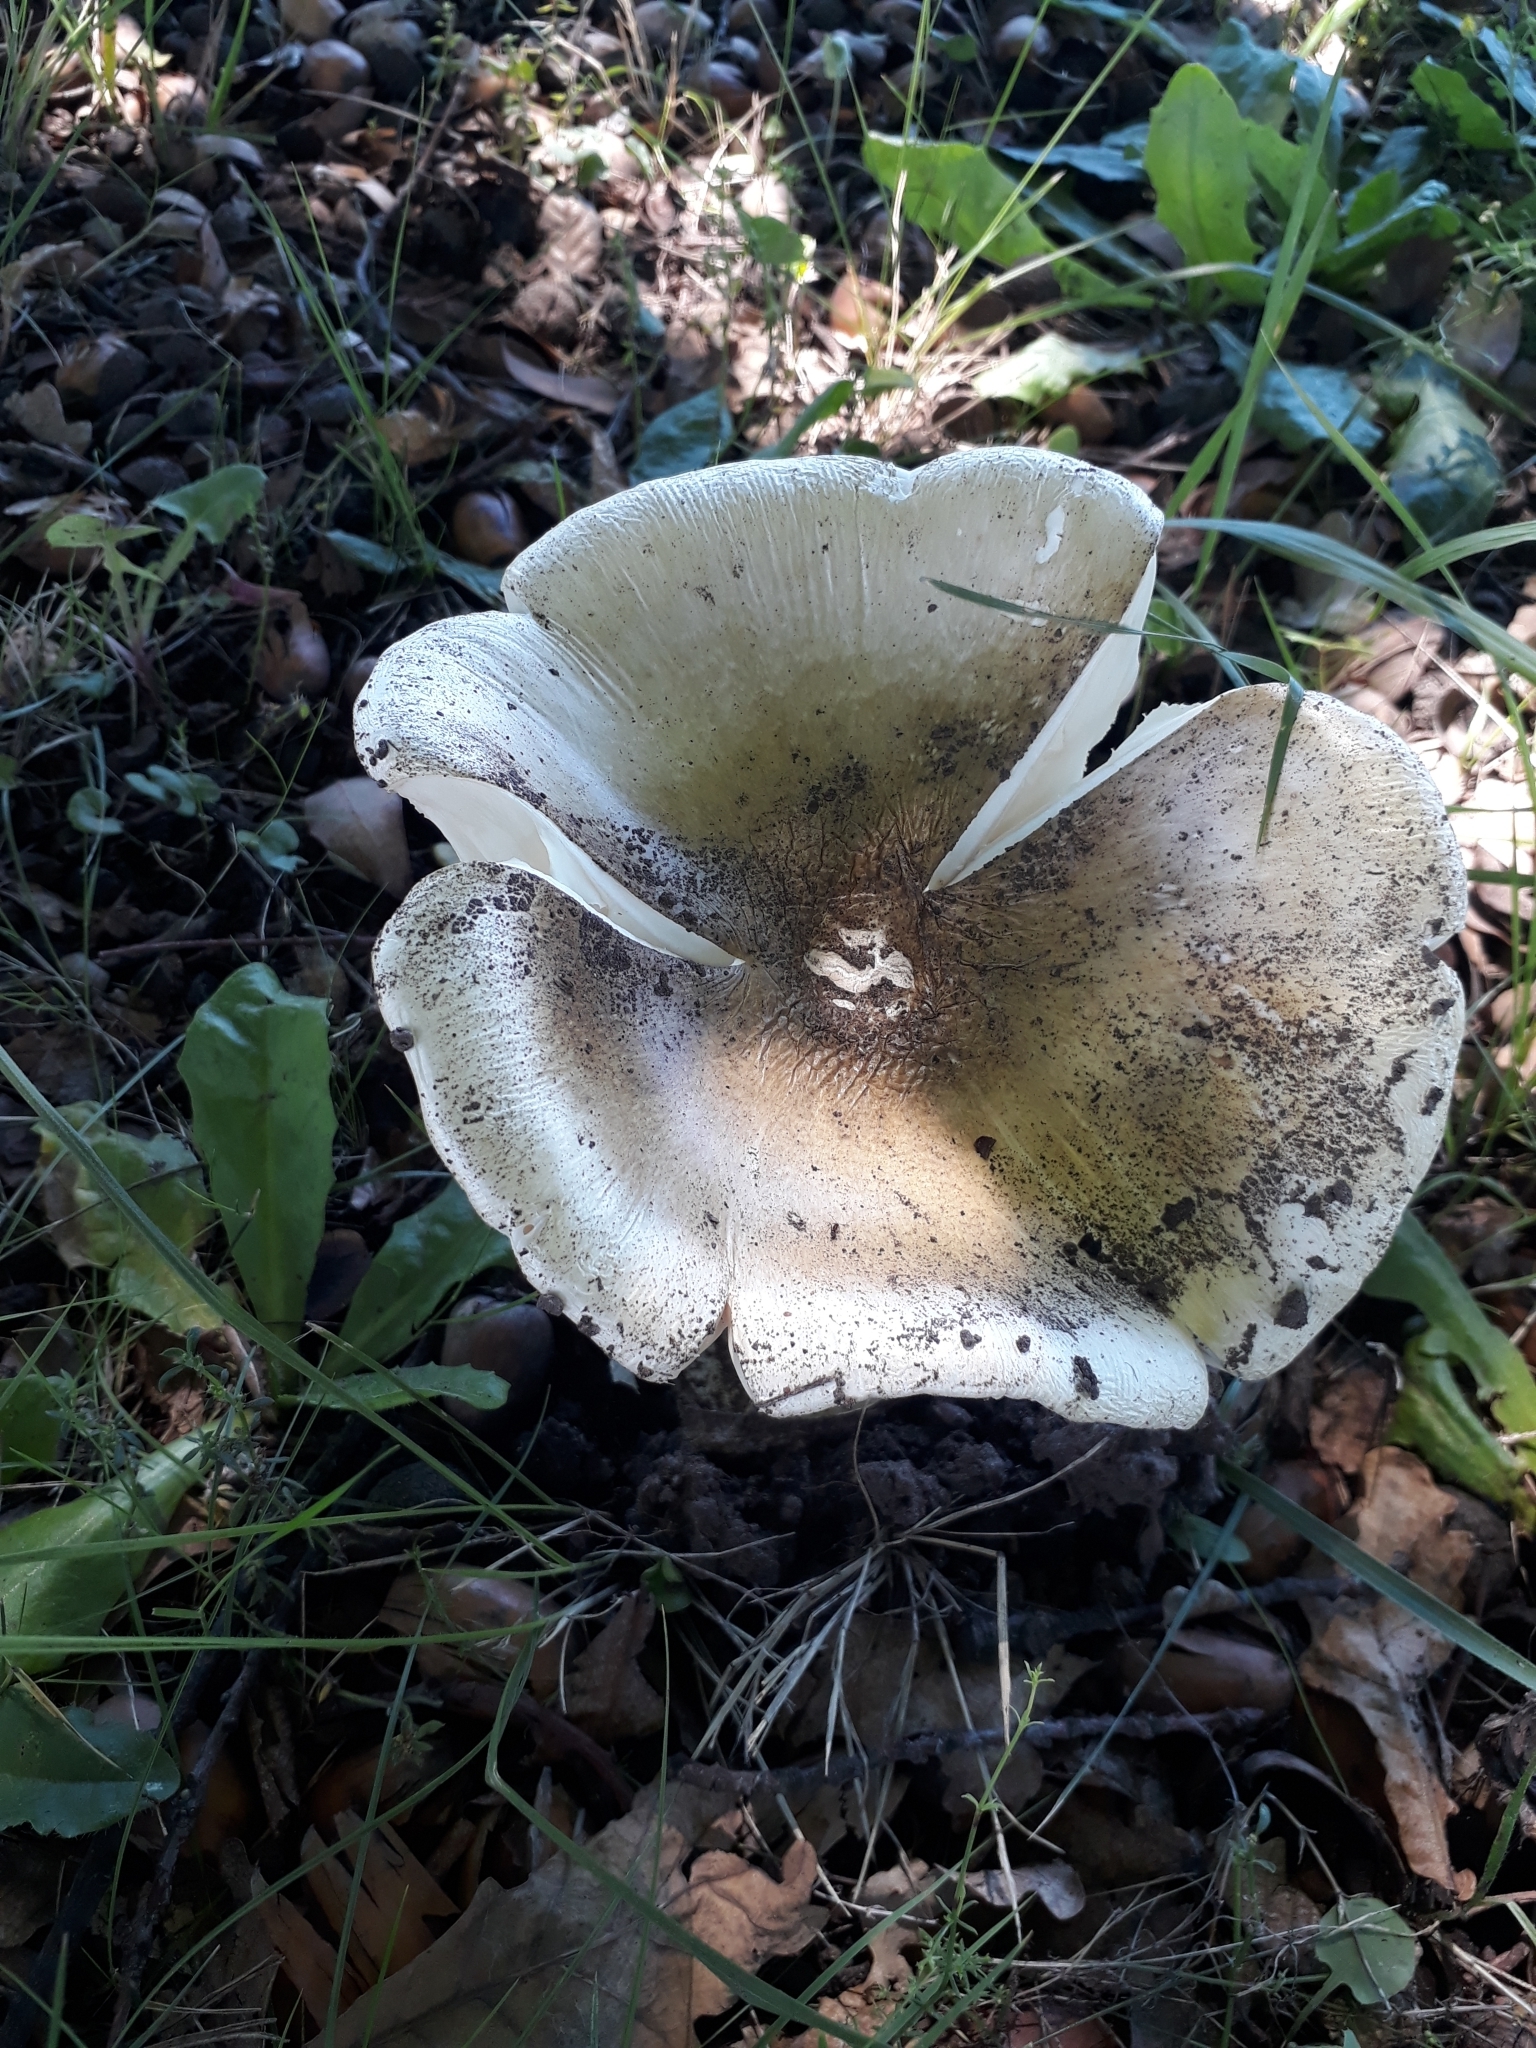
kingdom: Fungi
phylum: Basidiomycota
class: Agaricomycetes
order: Agaricales
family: Amanitaceae
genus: Amanita
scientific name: Amanita phalloides
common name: Death cap
